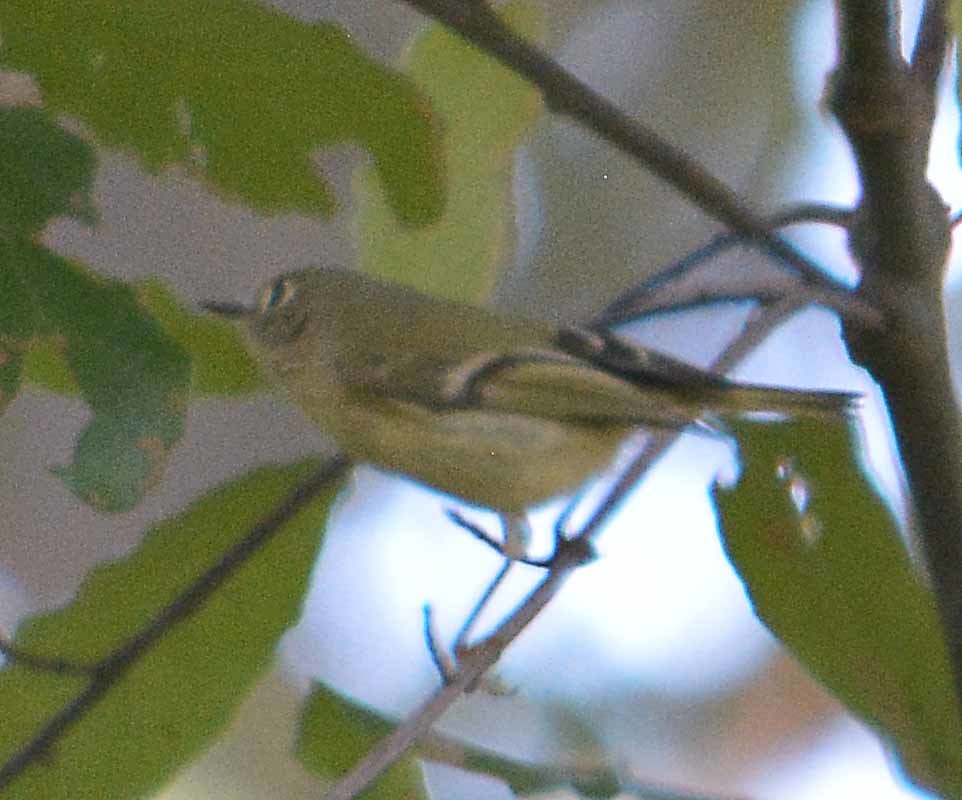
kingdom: Animalia
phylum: Chordata
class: Aves
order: Passeriformes
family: Regulidae
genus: Regulus
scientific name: Regulus calendula
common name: Ruby-crowned kinglet
